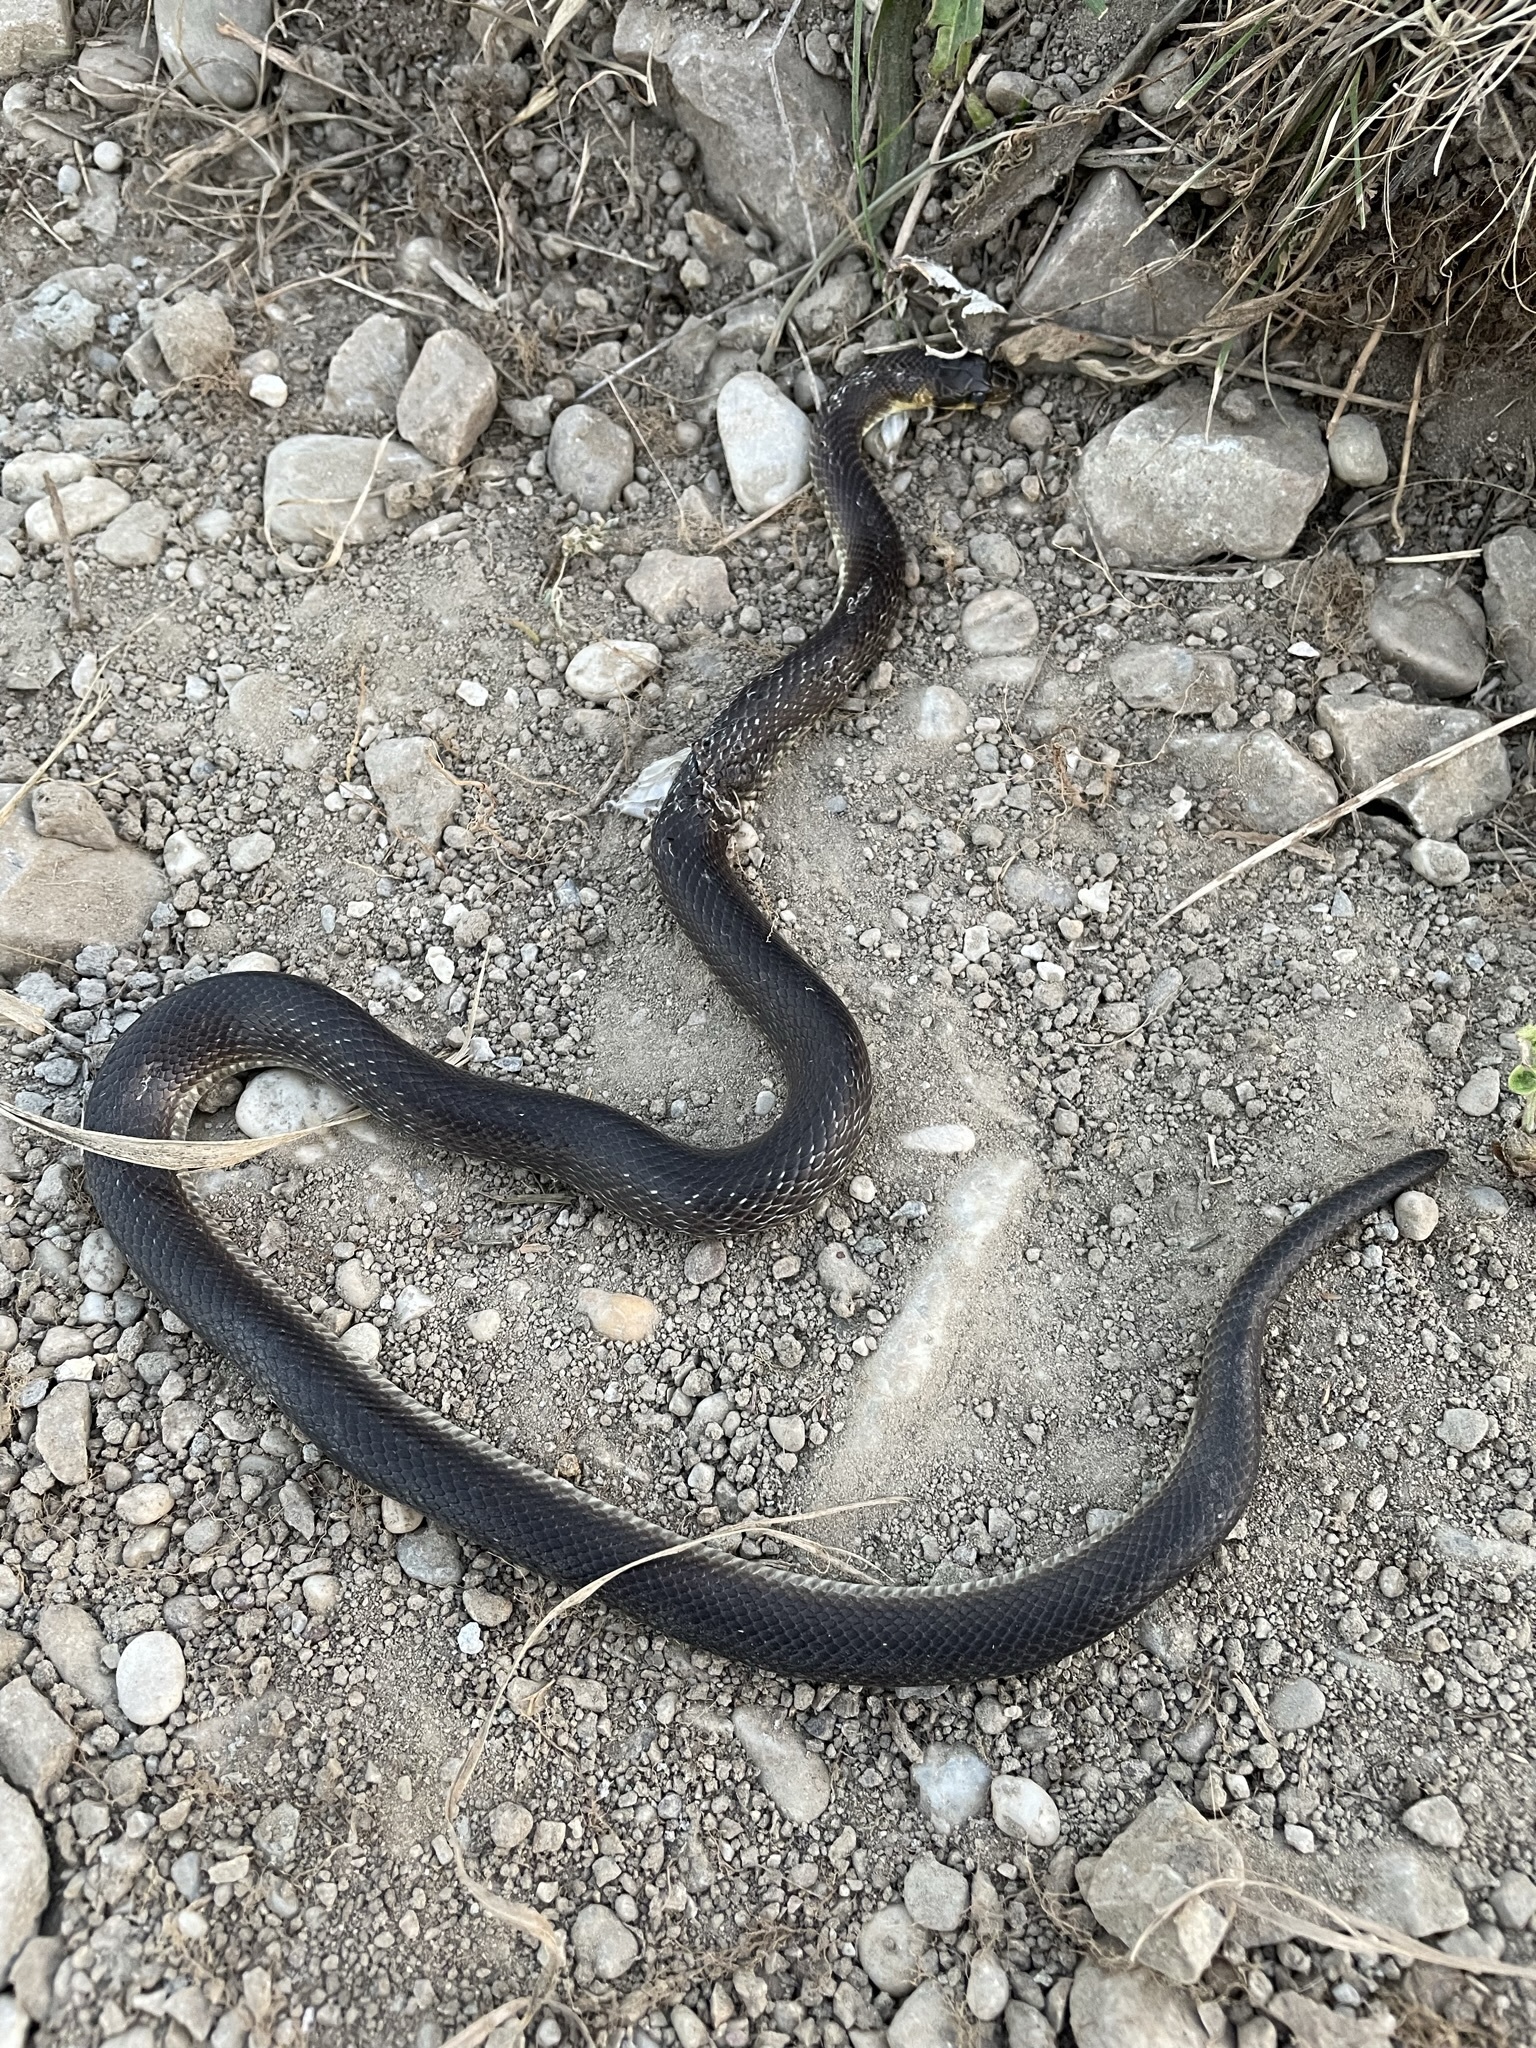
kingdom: Animalia
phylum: Chordata
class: Squamata
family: Colubridae
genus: Zamenis
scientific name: Zamenis longissimus
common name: Aesculapean snake
